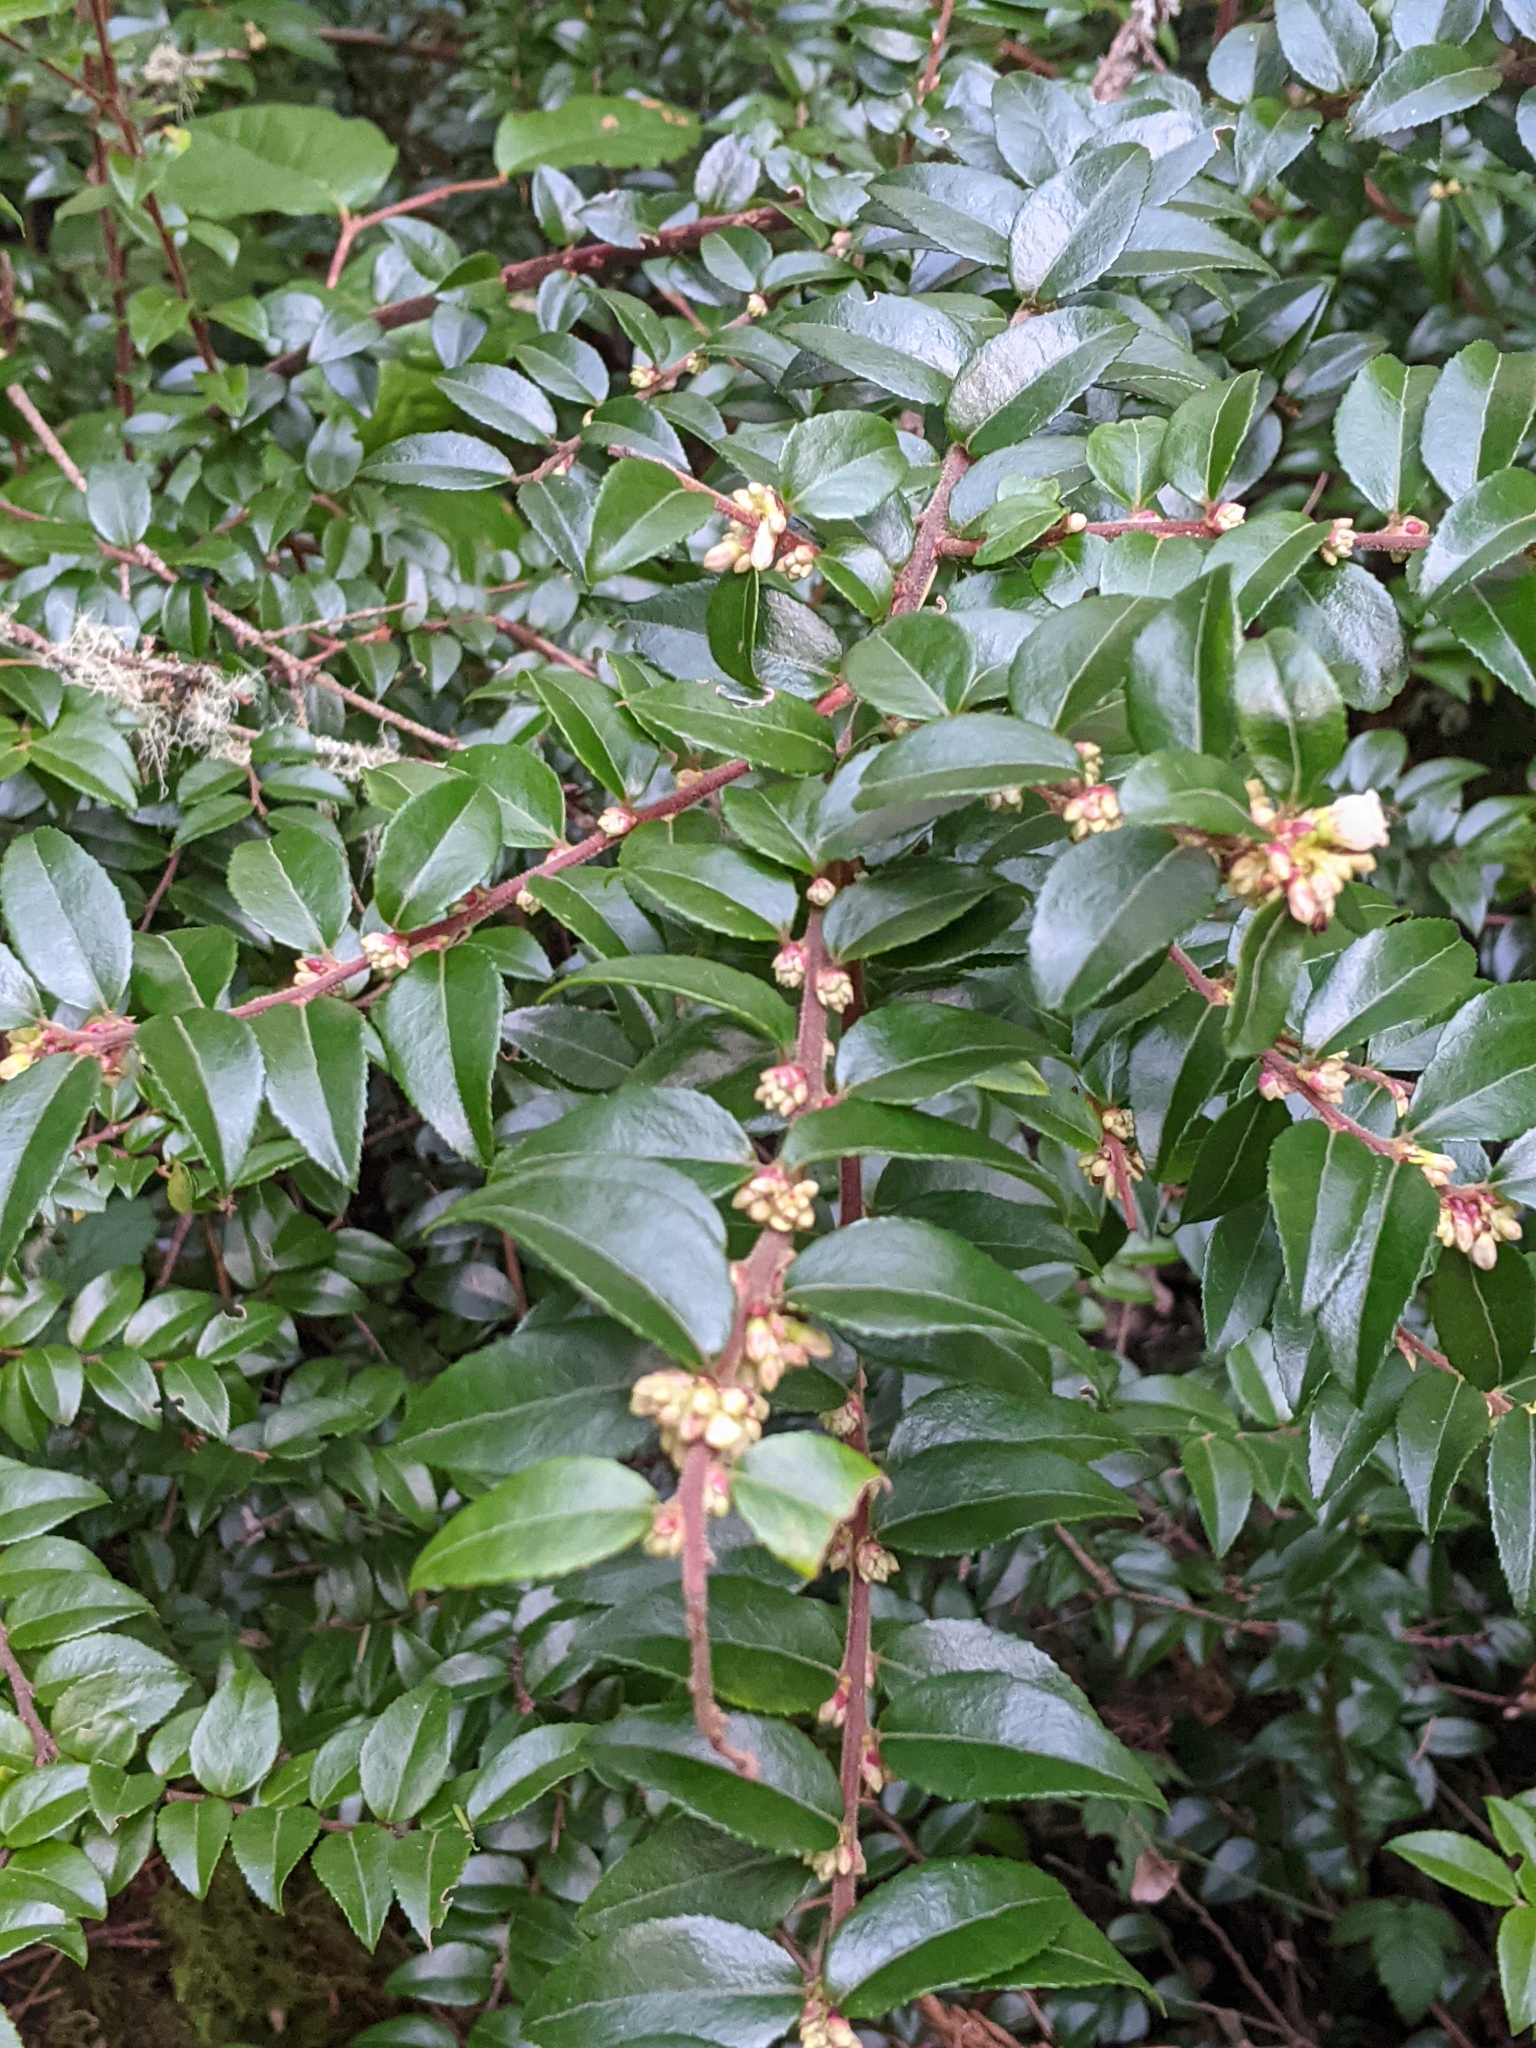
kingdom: Plantae
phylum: Tracheophyta
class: Magnoliopsida
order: Ericales
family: Ericaceae
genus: Vaccinium
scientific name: Vaccinium ovatum
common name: California-huckleberry
